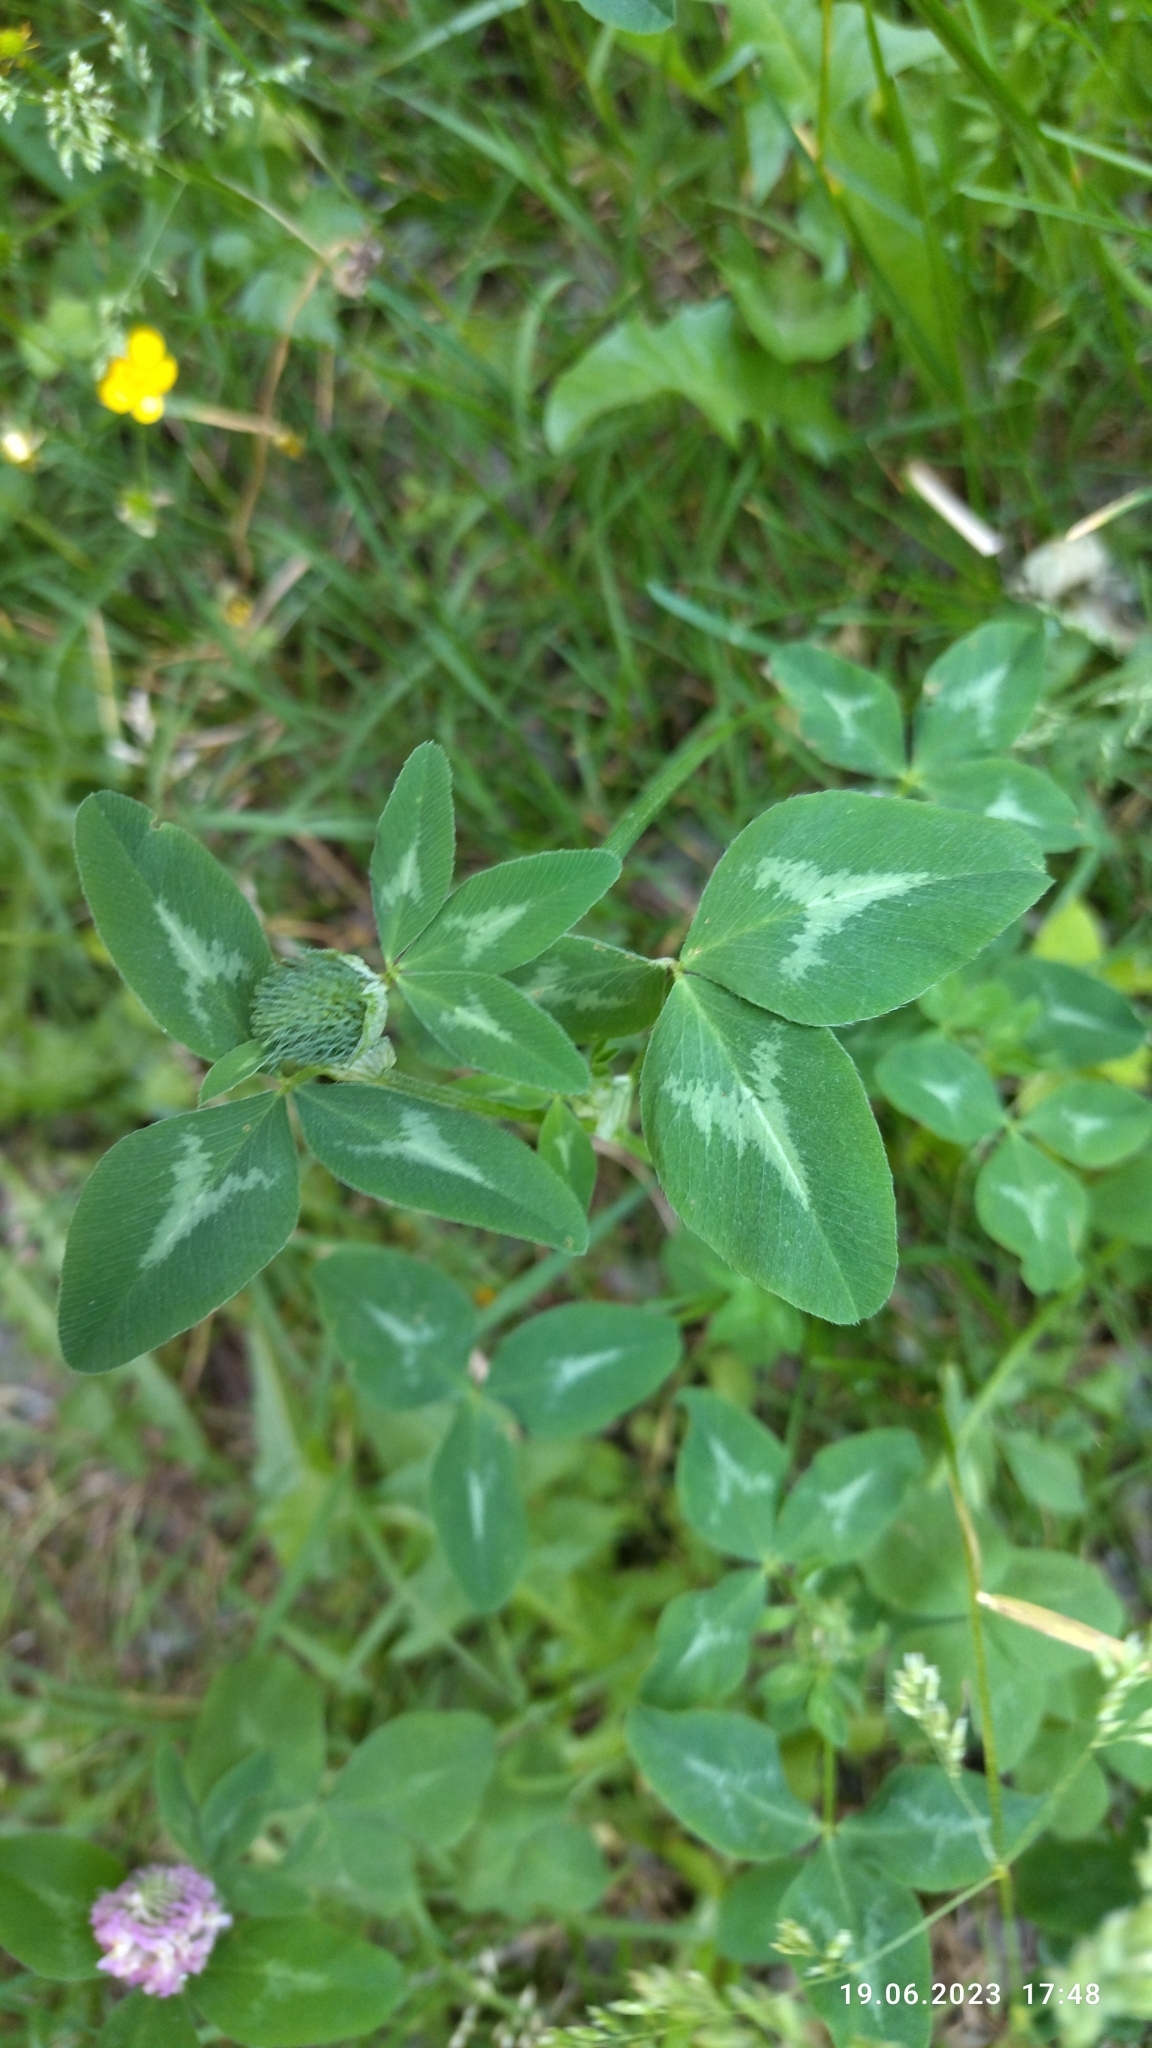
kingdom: Plantae
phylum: Tracheophyta
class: Magnoliopsida
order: Fabales
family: Fabaceae
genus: Trifolium
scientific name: Trifolium pratense
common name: Red clover
